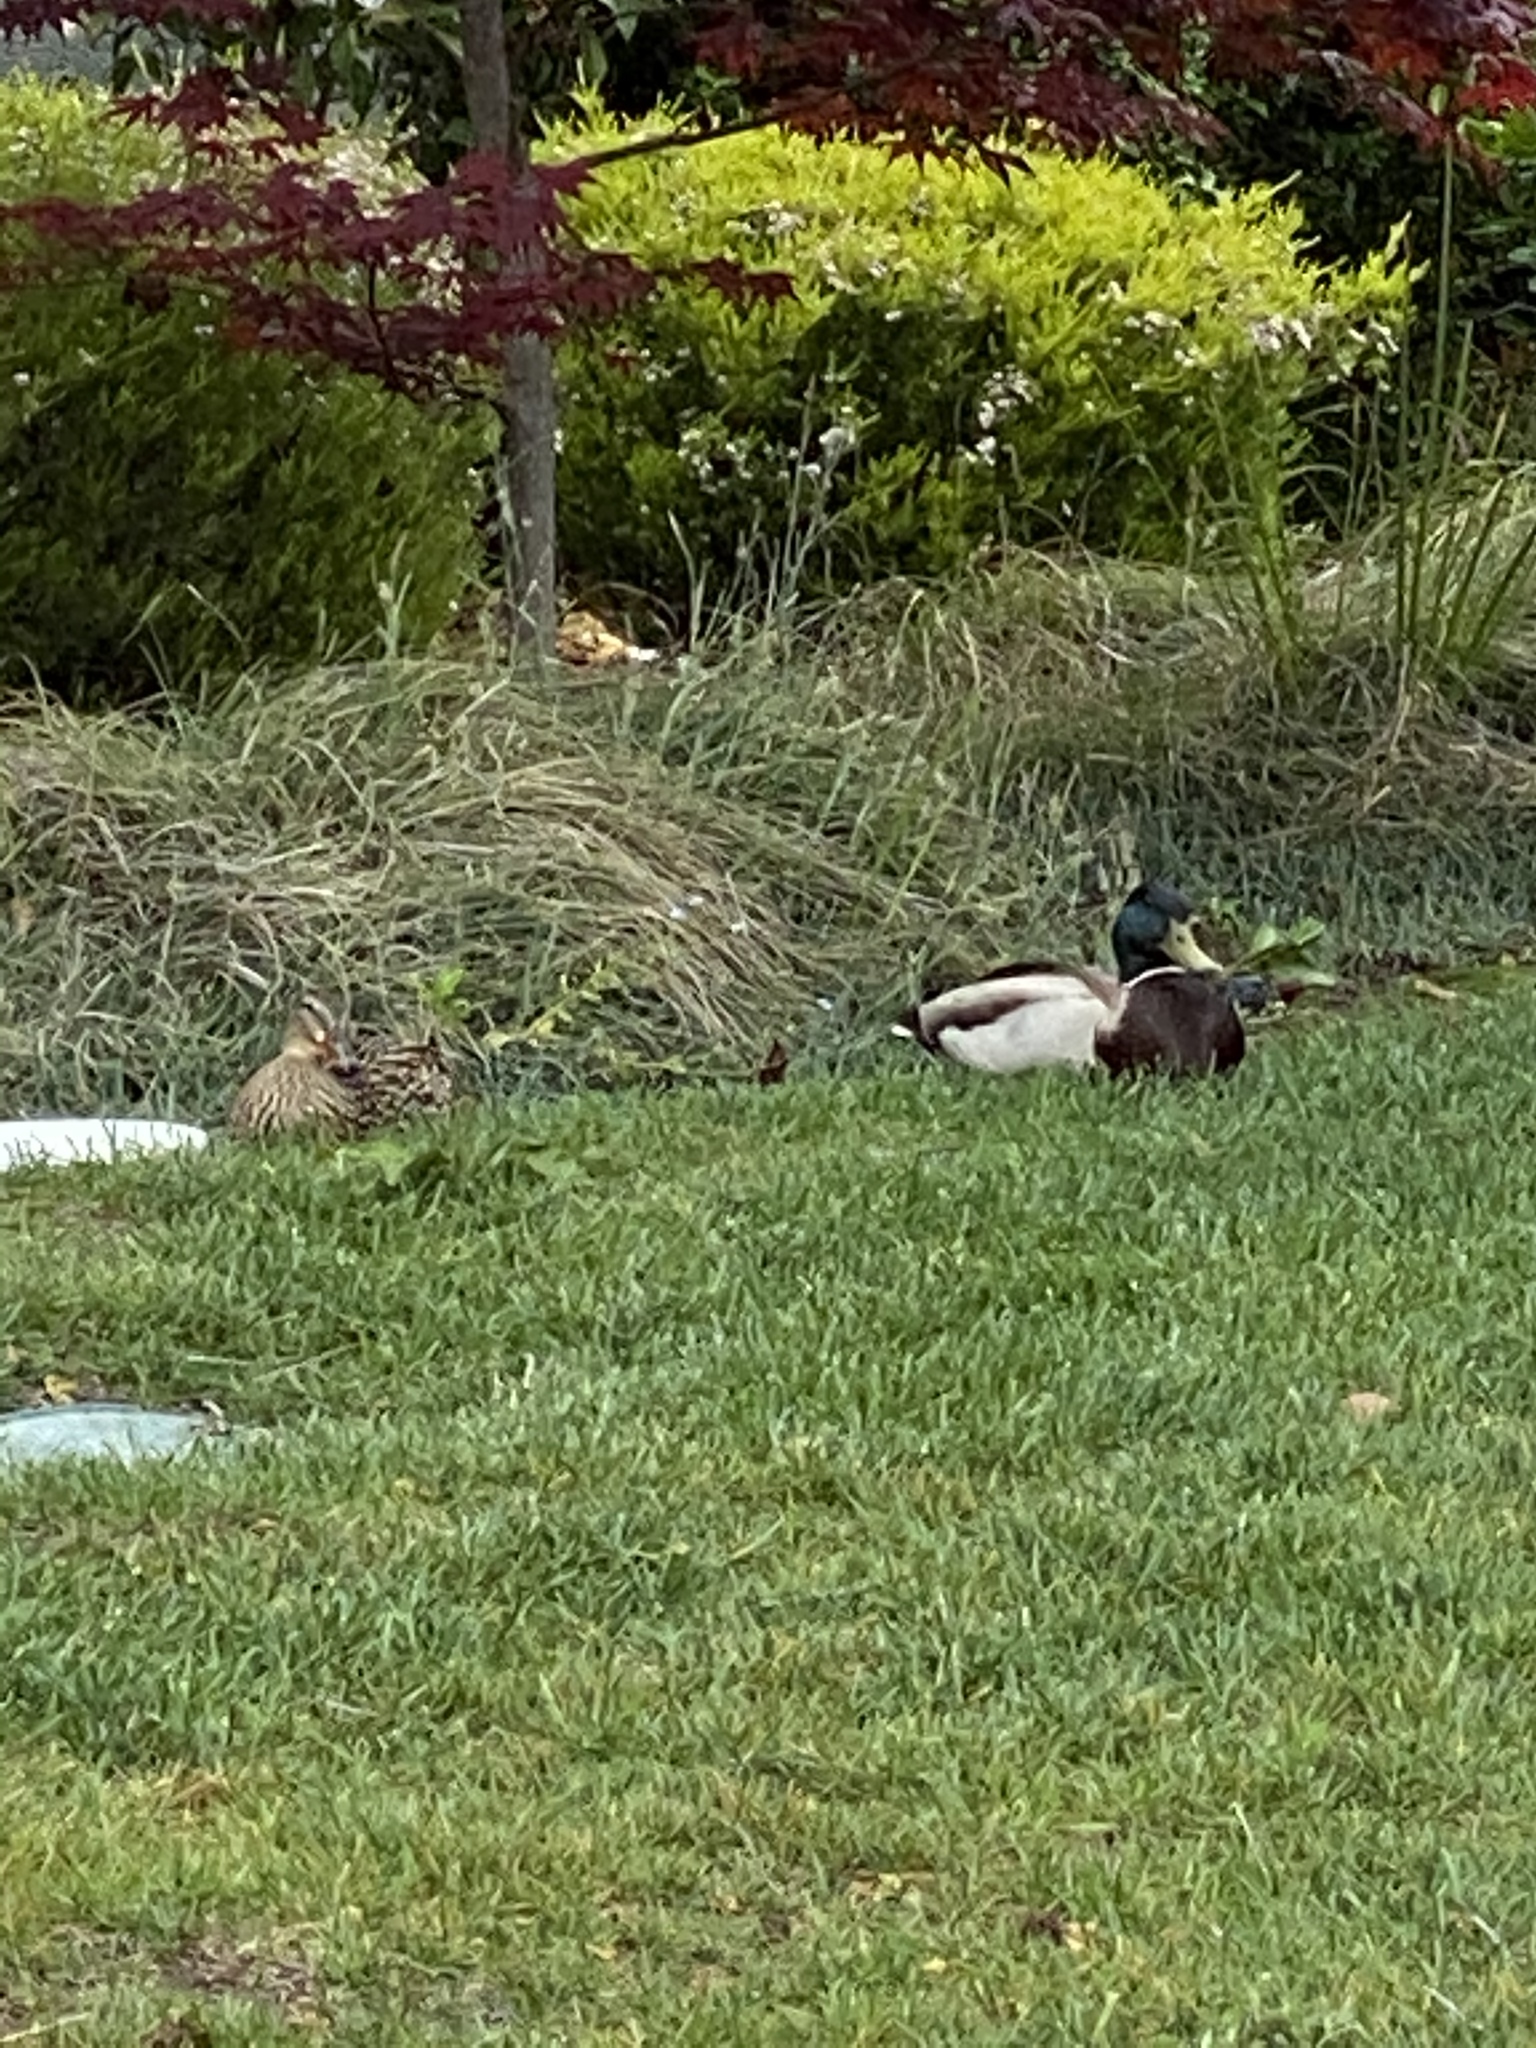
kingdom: Animalia
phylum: Chordata
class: Aves
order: Anseriformes
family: Anatidae
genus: Anas
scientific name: Anas platyrhynchos
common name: Mallard
